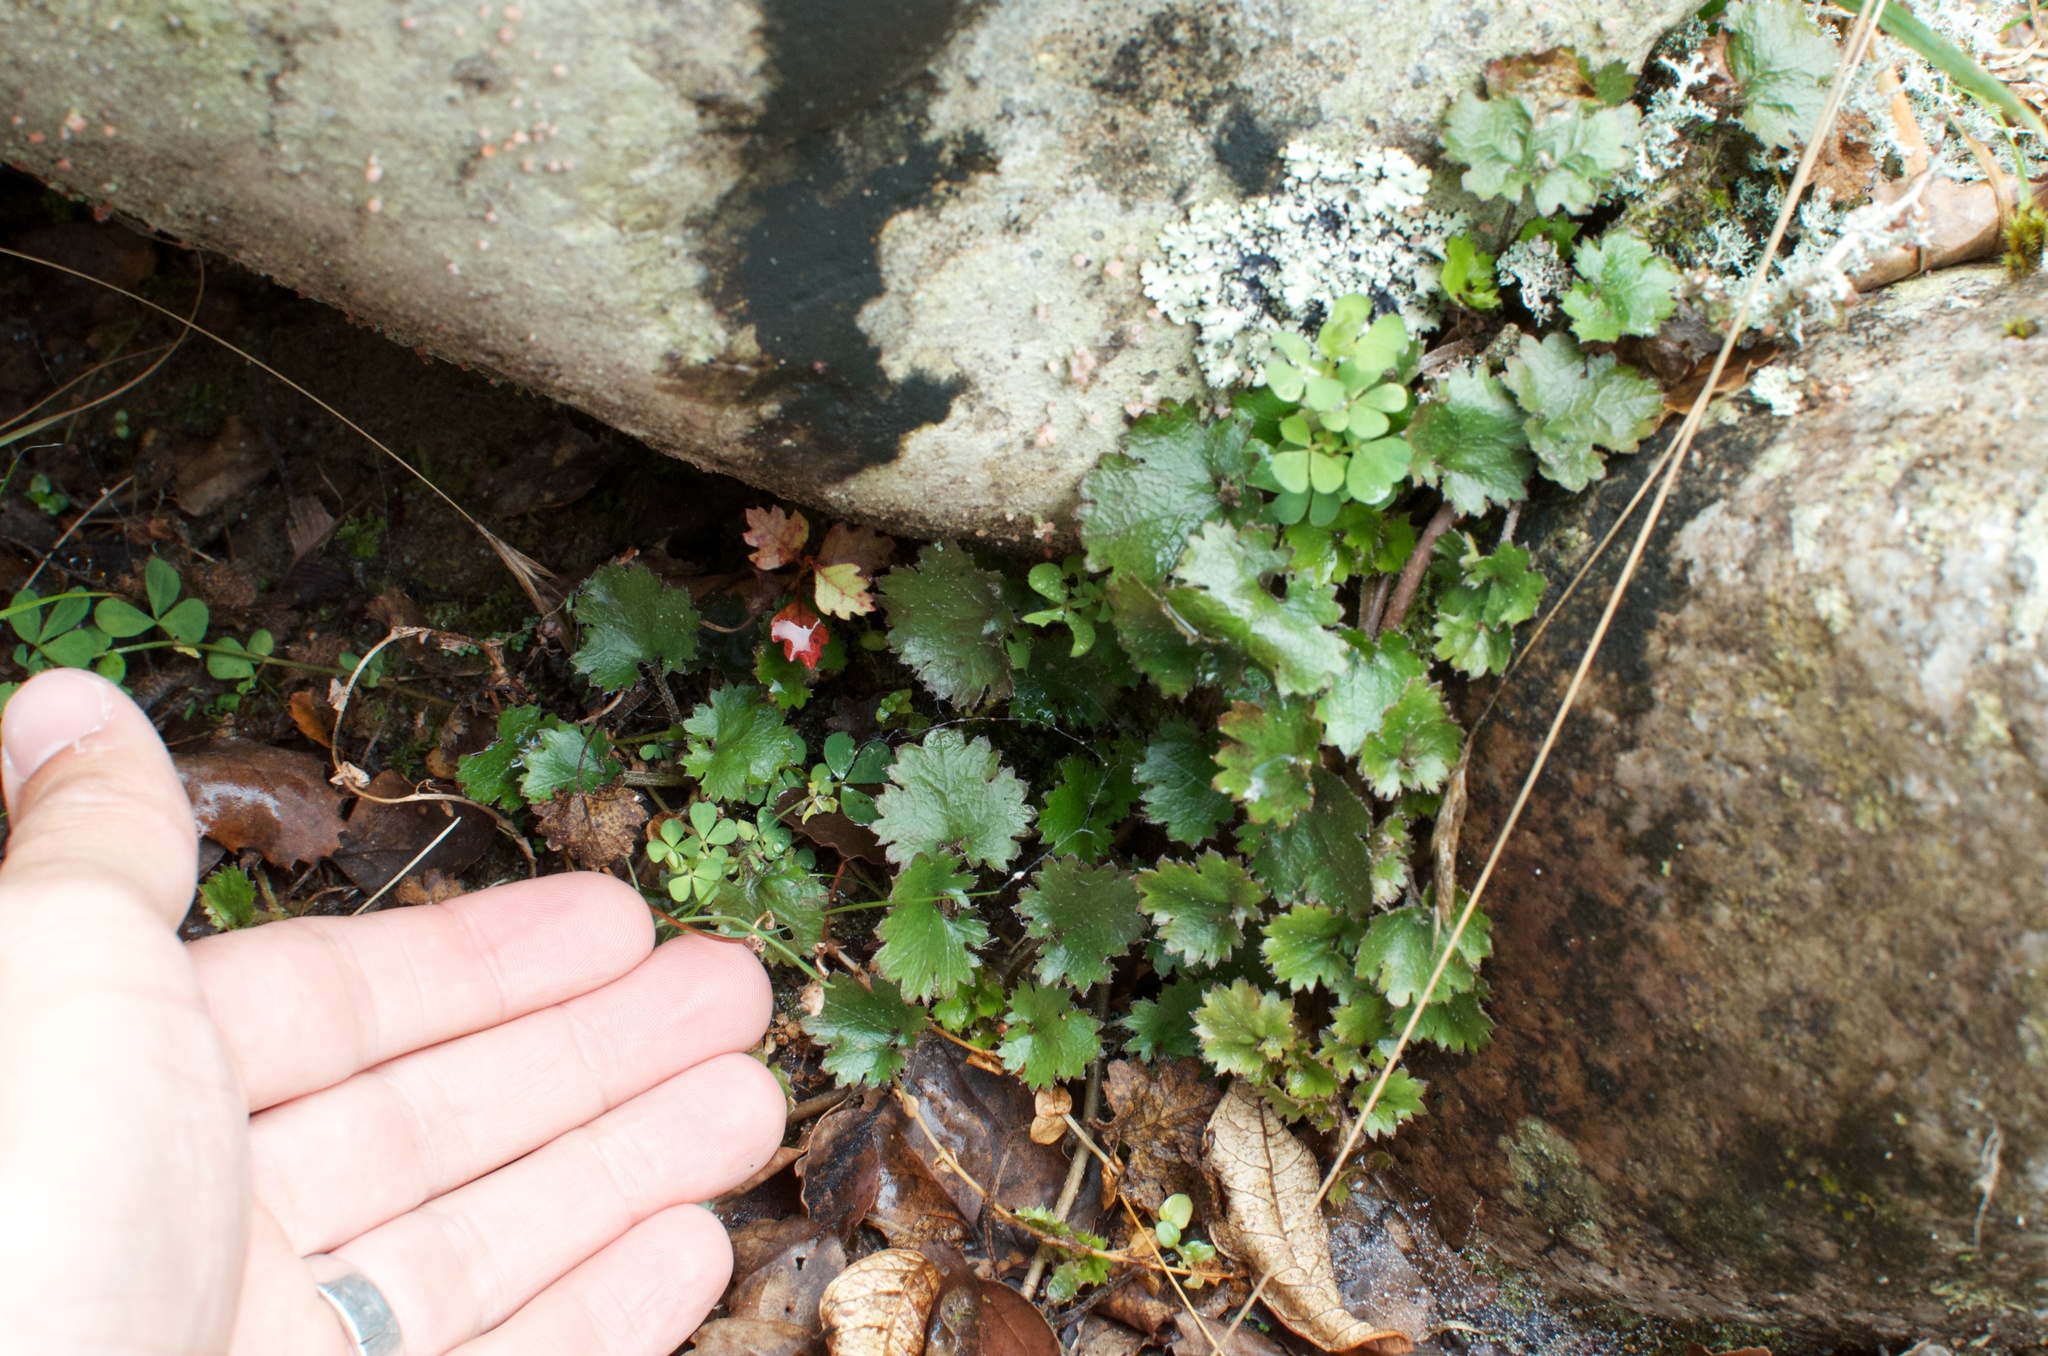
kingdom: Plantae
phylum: Tracheophyta
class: Magnoliopsida
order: Gunnerales
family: Gunneraceae
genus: Gunnera
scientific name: Gunnera dentata
